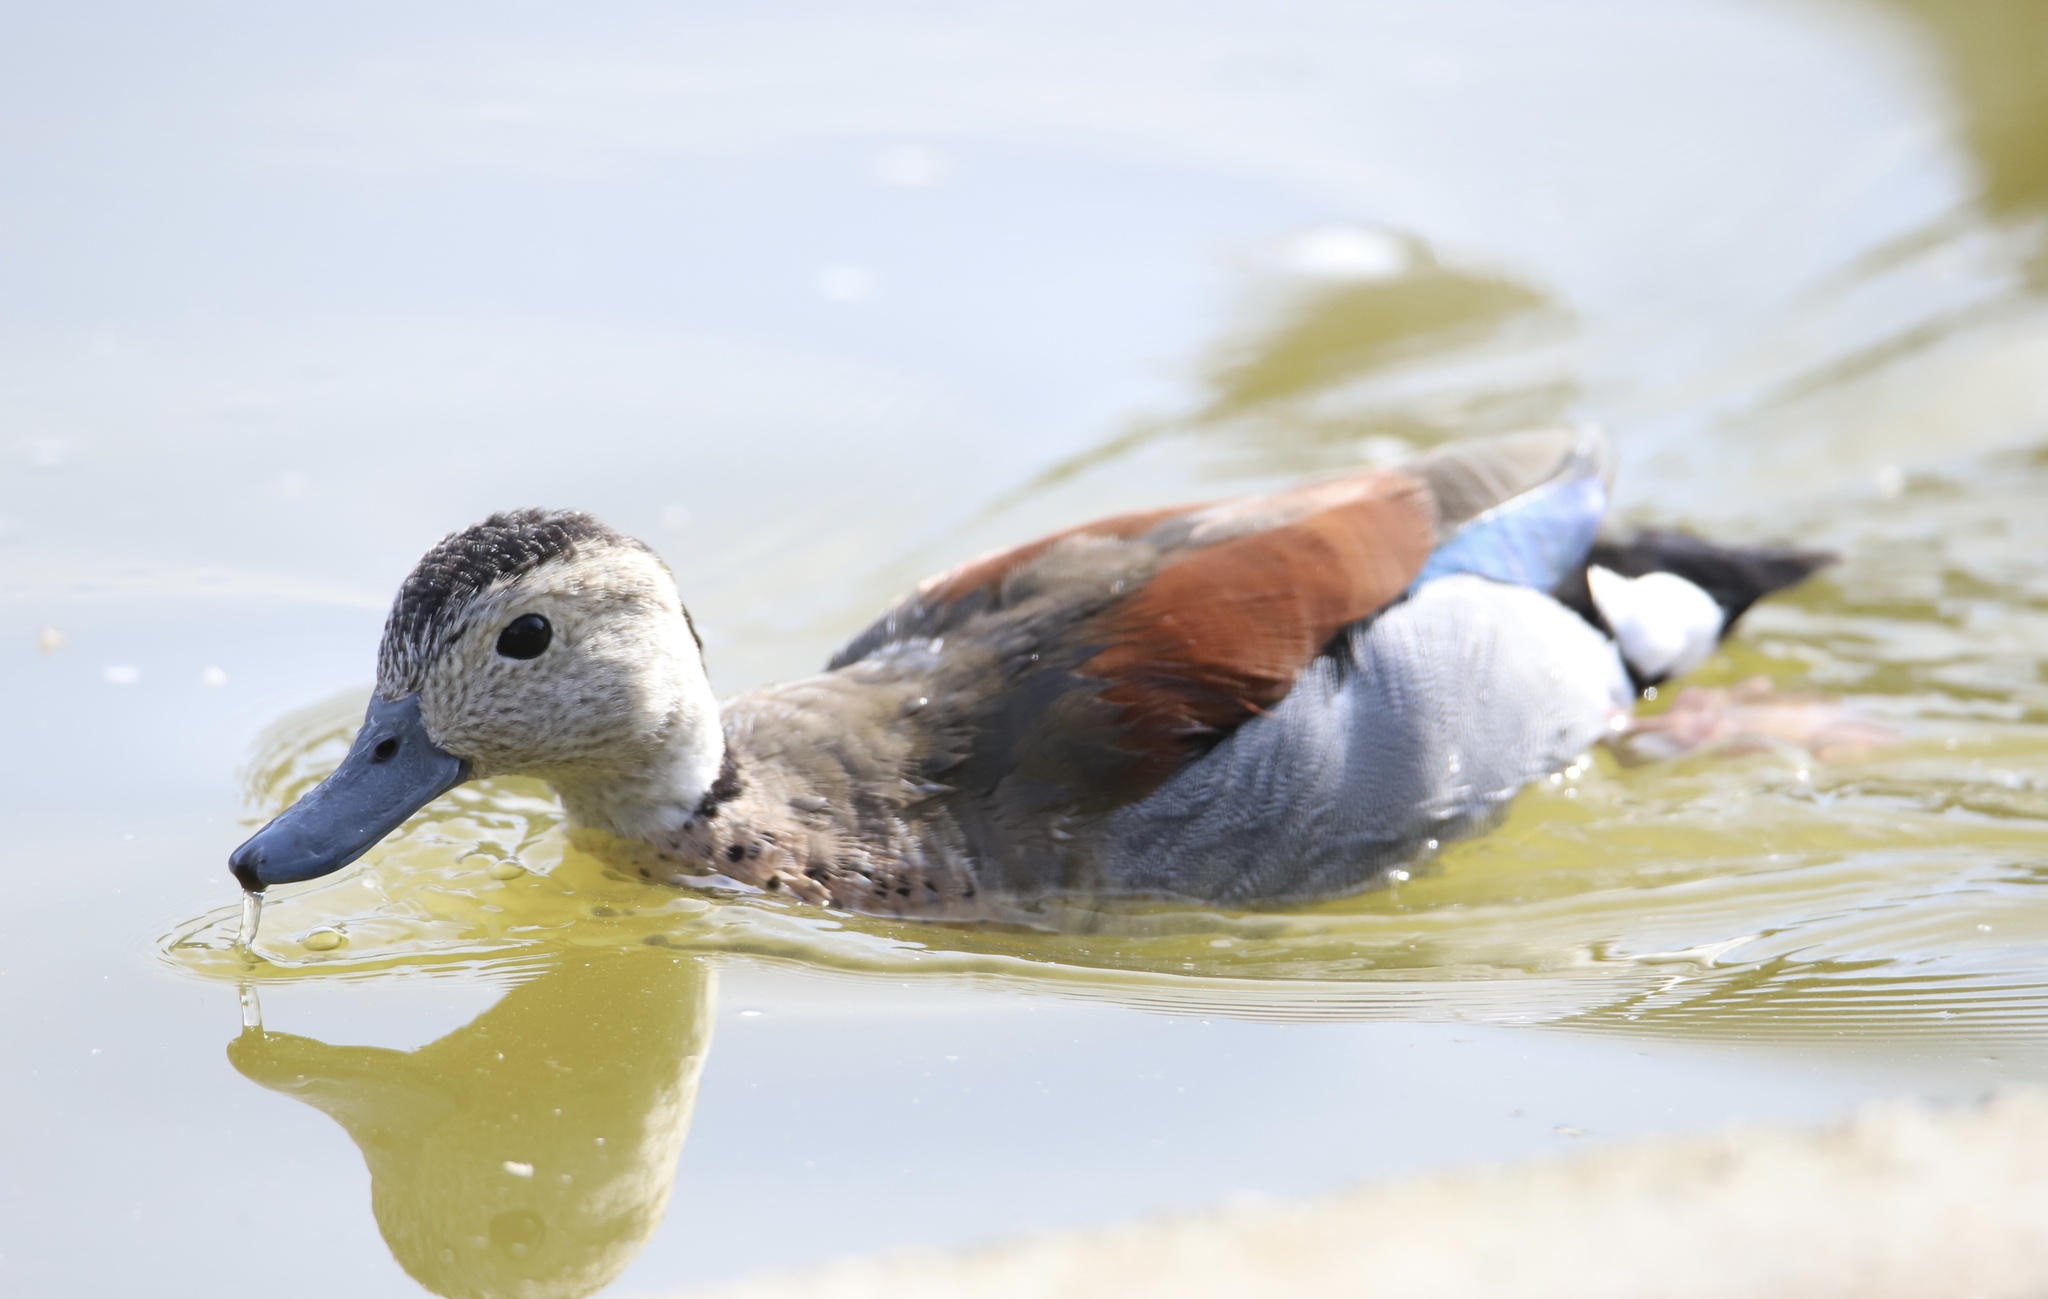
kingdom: Animalia
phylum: Chordata
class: Aves
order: Anseriformes
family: Anatidae
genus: Callonetta
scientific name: Callonetta leucophrys
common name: Ringed teal
